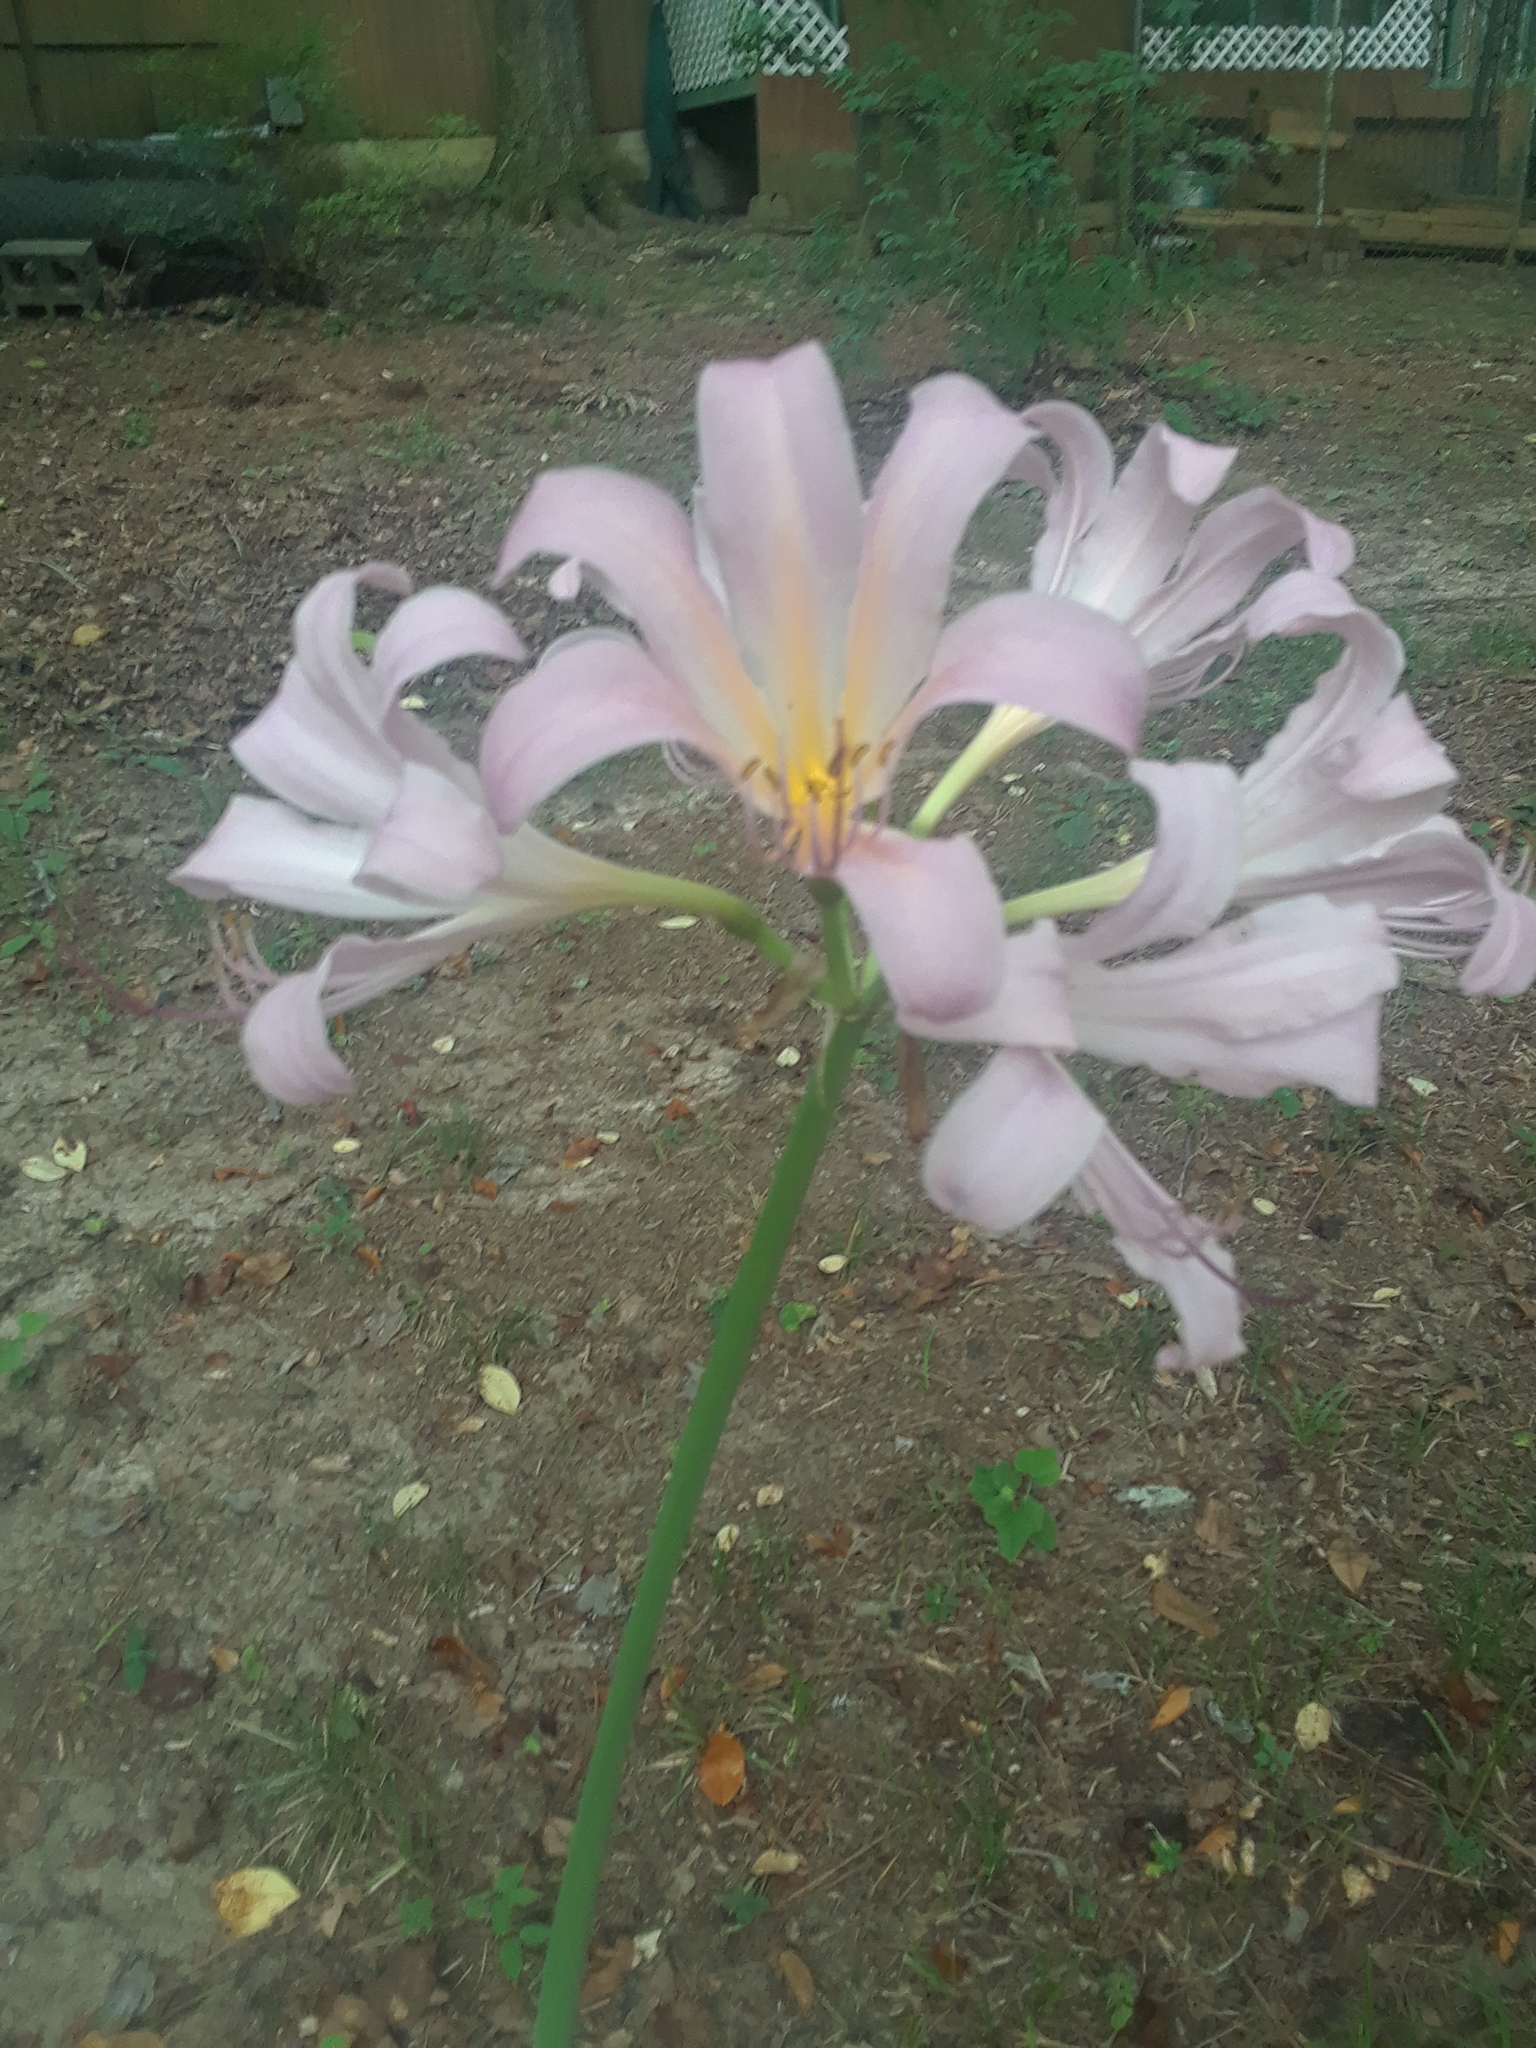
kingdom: Plantae
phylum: Tracheophyta
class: Liliopsida
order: Asparagales
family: Amaryllidaceae
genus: Lycoris
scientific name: Lycoris squamigera
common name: Magic-lily
